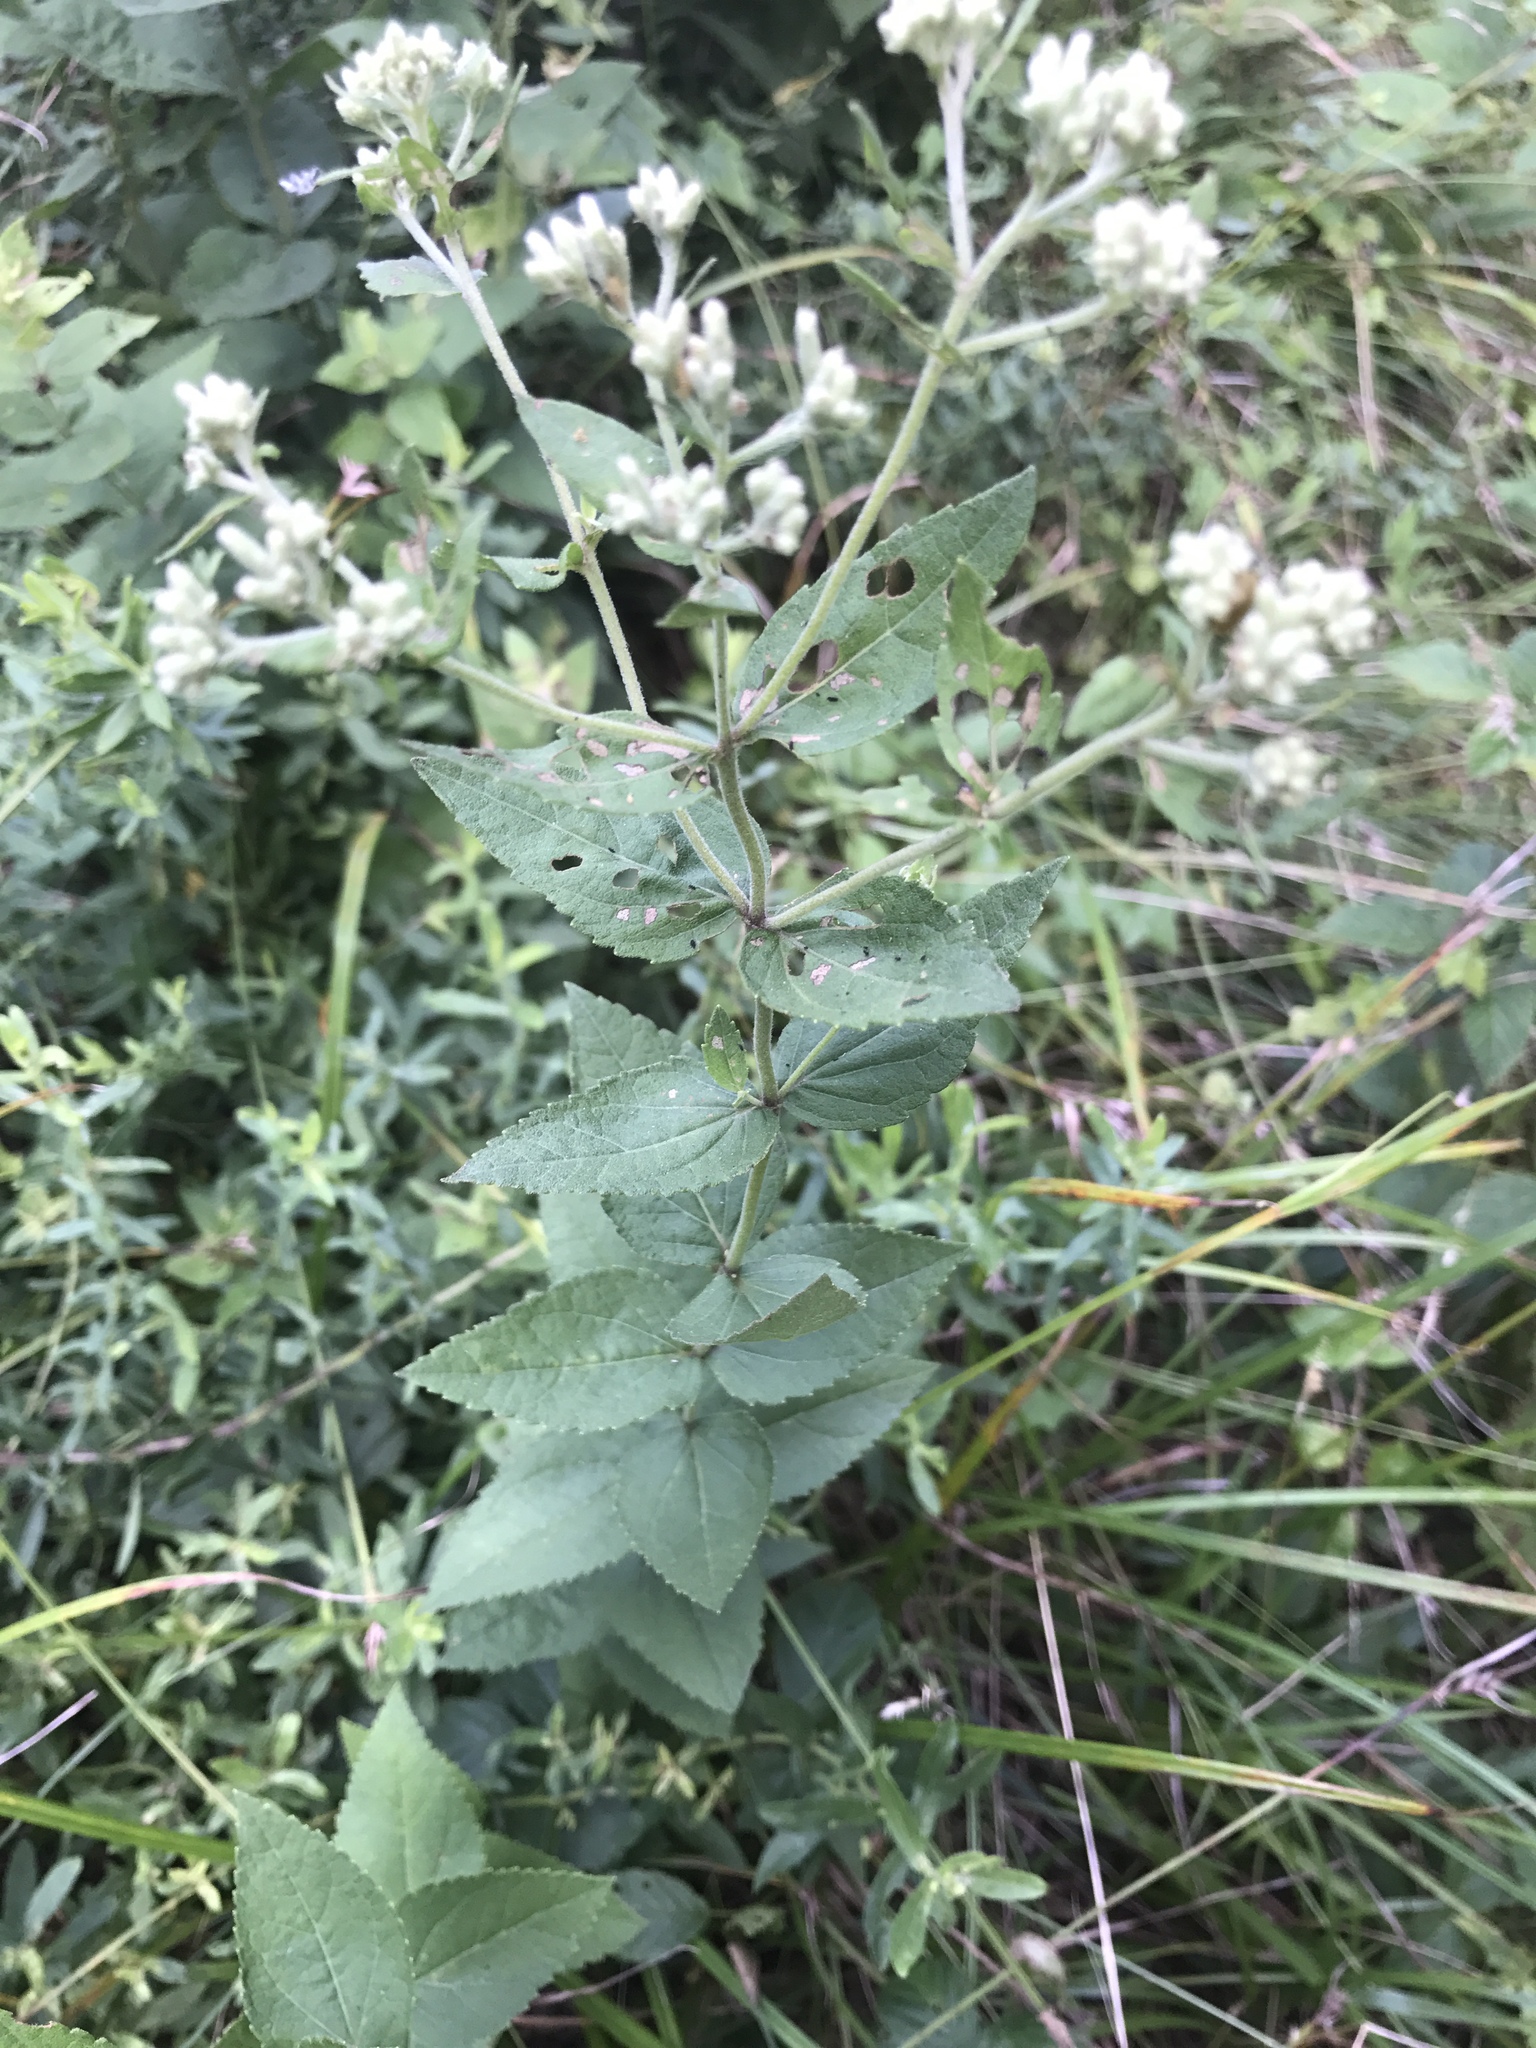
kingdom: Plantae
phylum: Tracheophyta
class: Magnoliopsida
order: Asterales
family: Asteraceae
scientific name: Asteraceae
